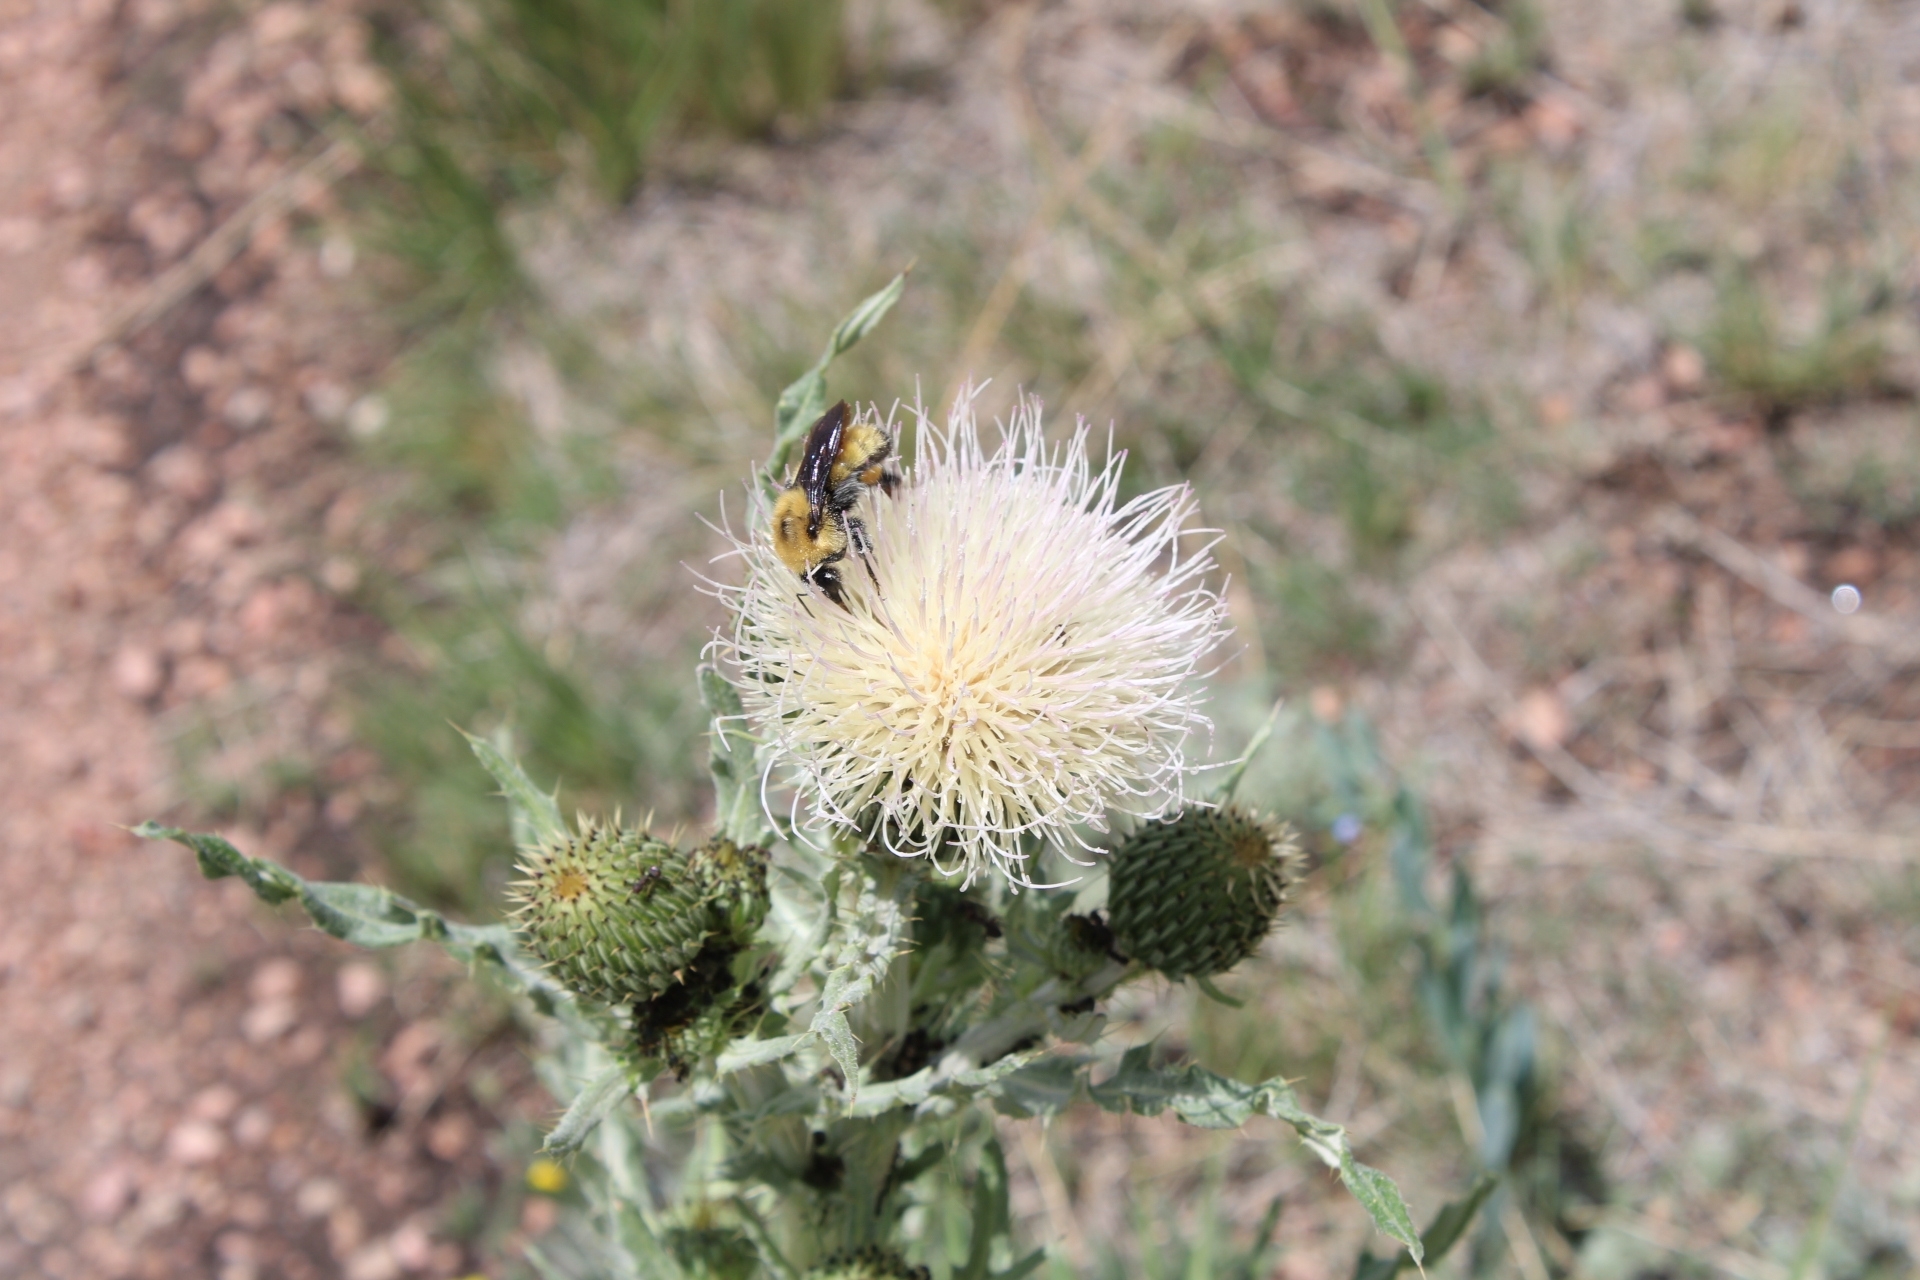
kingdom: Plantae
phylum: Tracheophyta
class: Magnoliopsida
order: Asterales
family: Asteraceae
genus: Cirsium
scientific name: Cirsium canescens
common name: Prairie thistle
